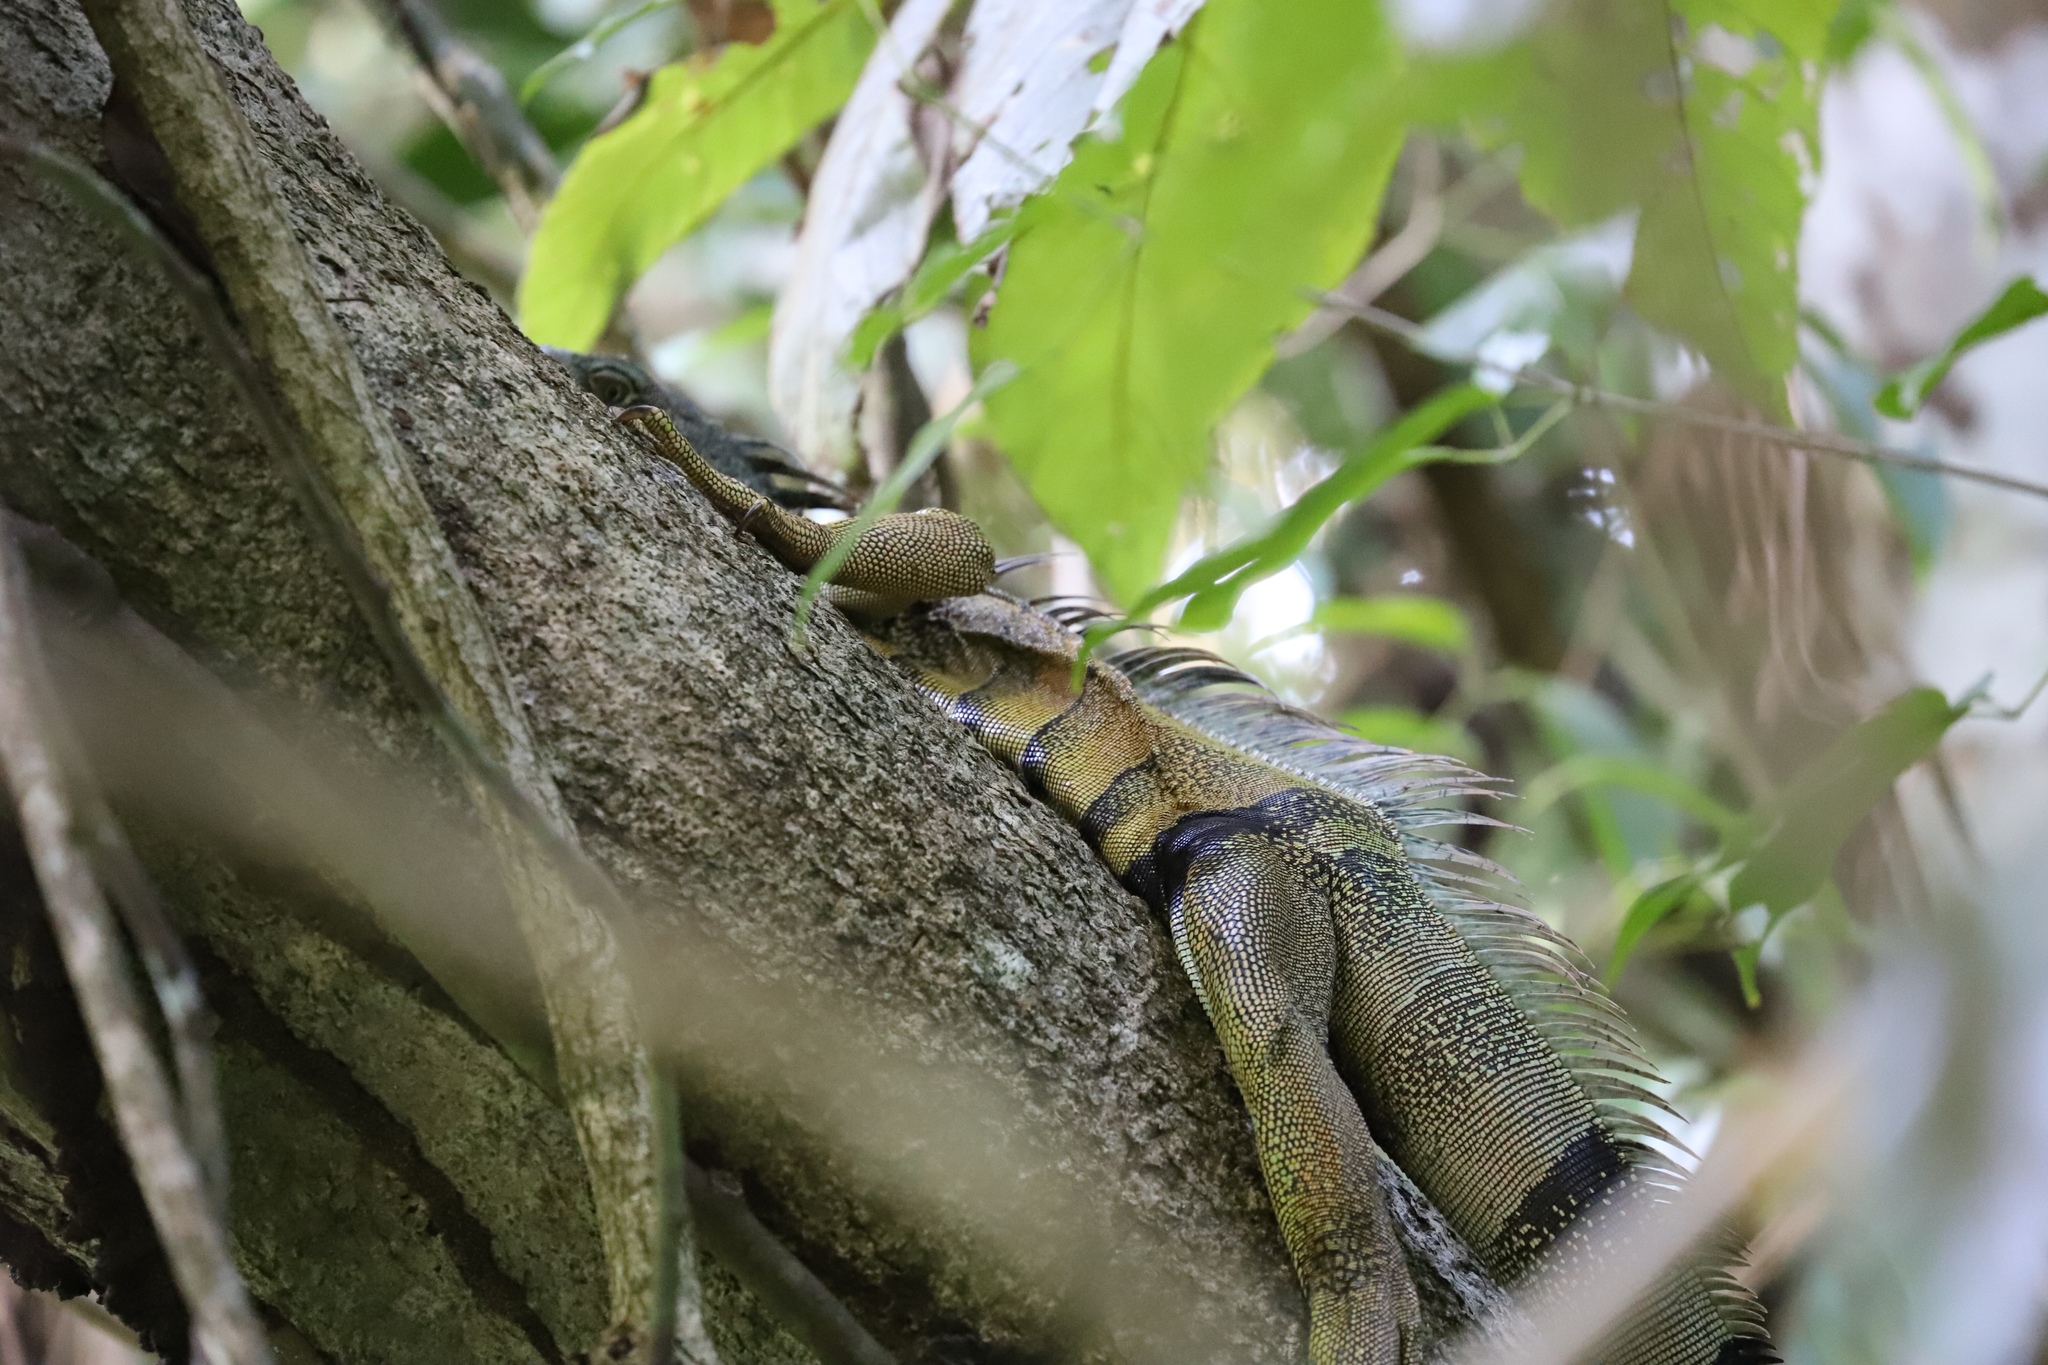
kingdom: Animalia
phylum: Chordata
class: Squamata
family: Iguanidae
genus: Iguana
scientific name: Iguana iguana
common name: Green iguana
